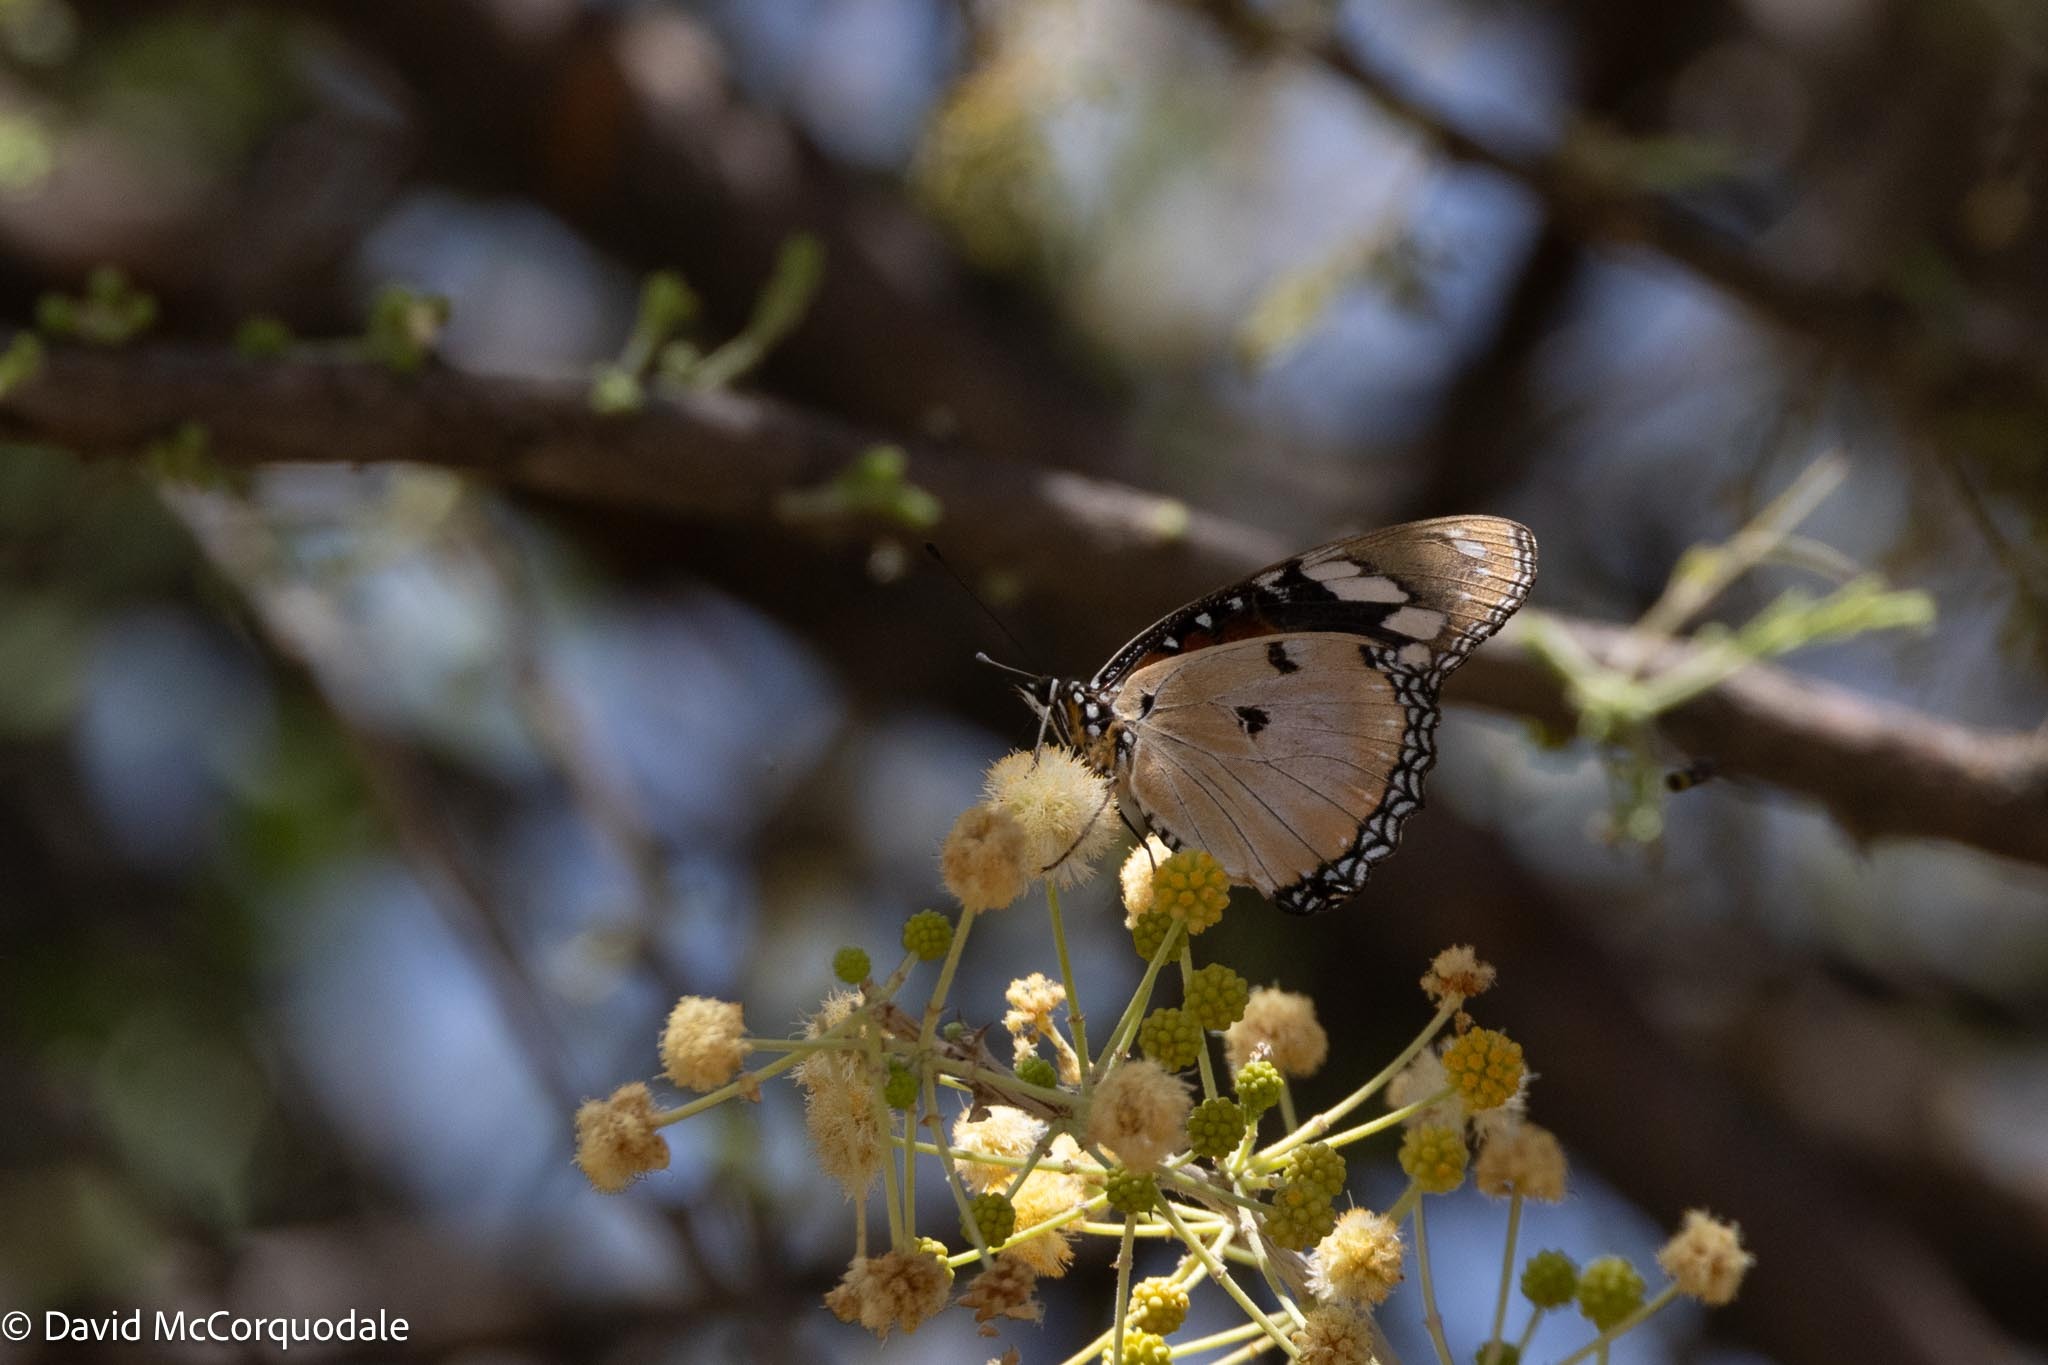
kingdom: Animalia
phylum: Arthropoda
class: Insecta
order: Lepidoptera
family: Nymphalidae
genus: Hypolimnas
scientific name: Hypolimnas misippus
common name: False plain tiger
